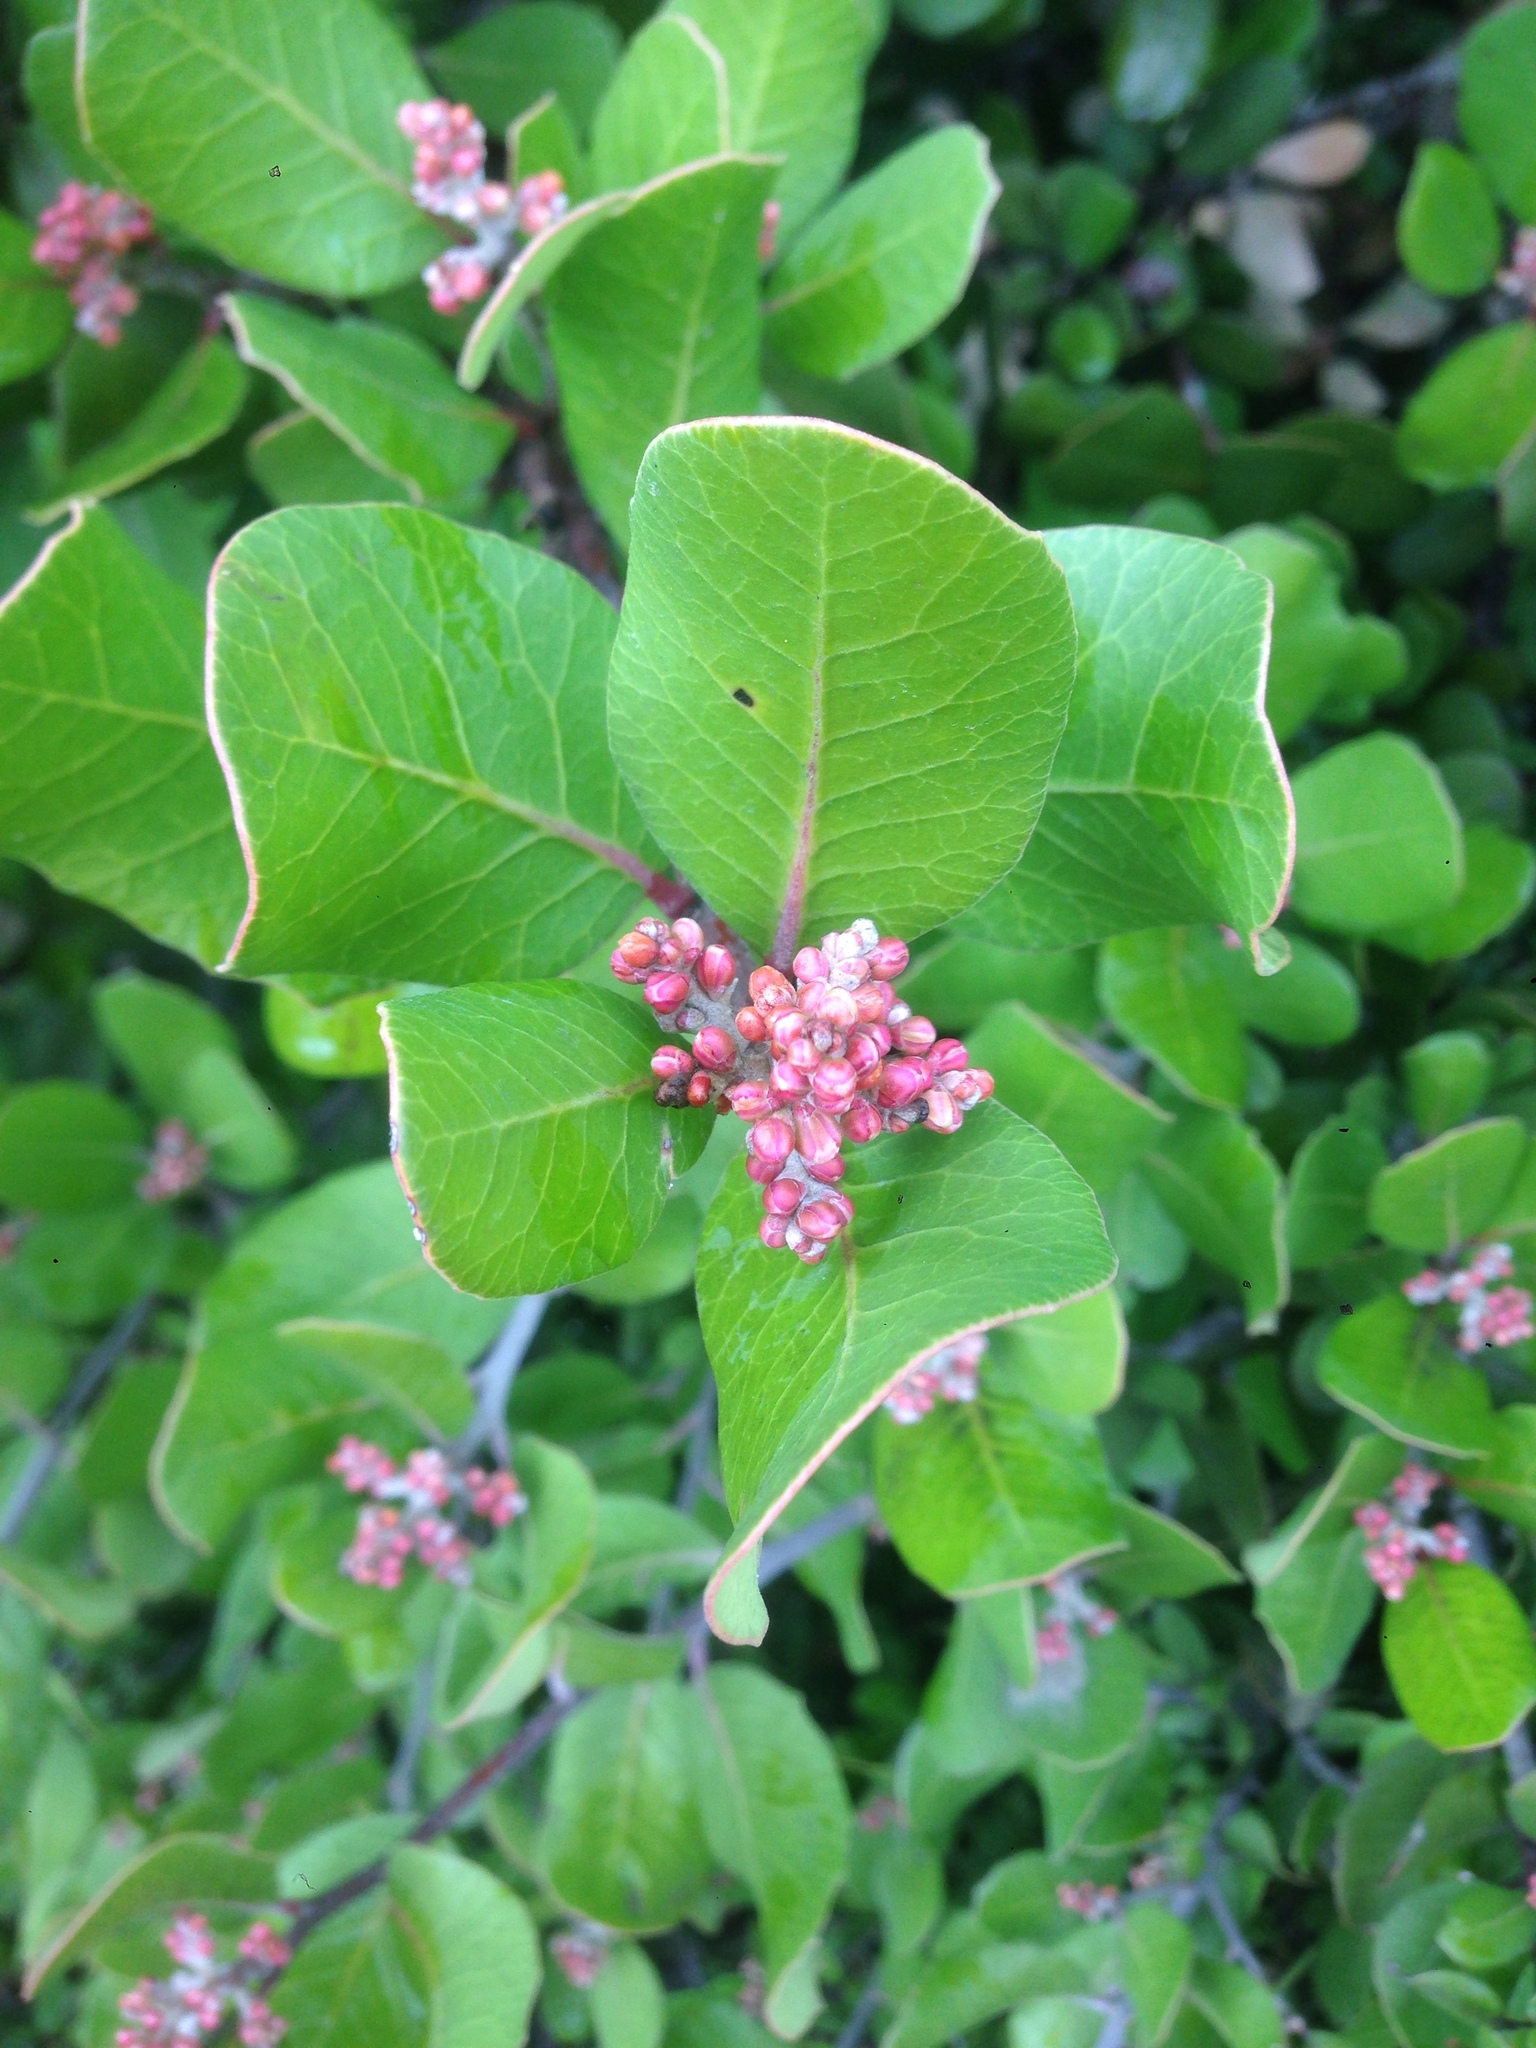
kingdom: Plantae
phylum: Tracheophyta
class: Magnoliopsida
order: Sapindales
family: Anacardiaceae
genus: Rhus
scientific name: Rhus integrifolia
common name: Lemonade sumac
